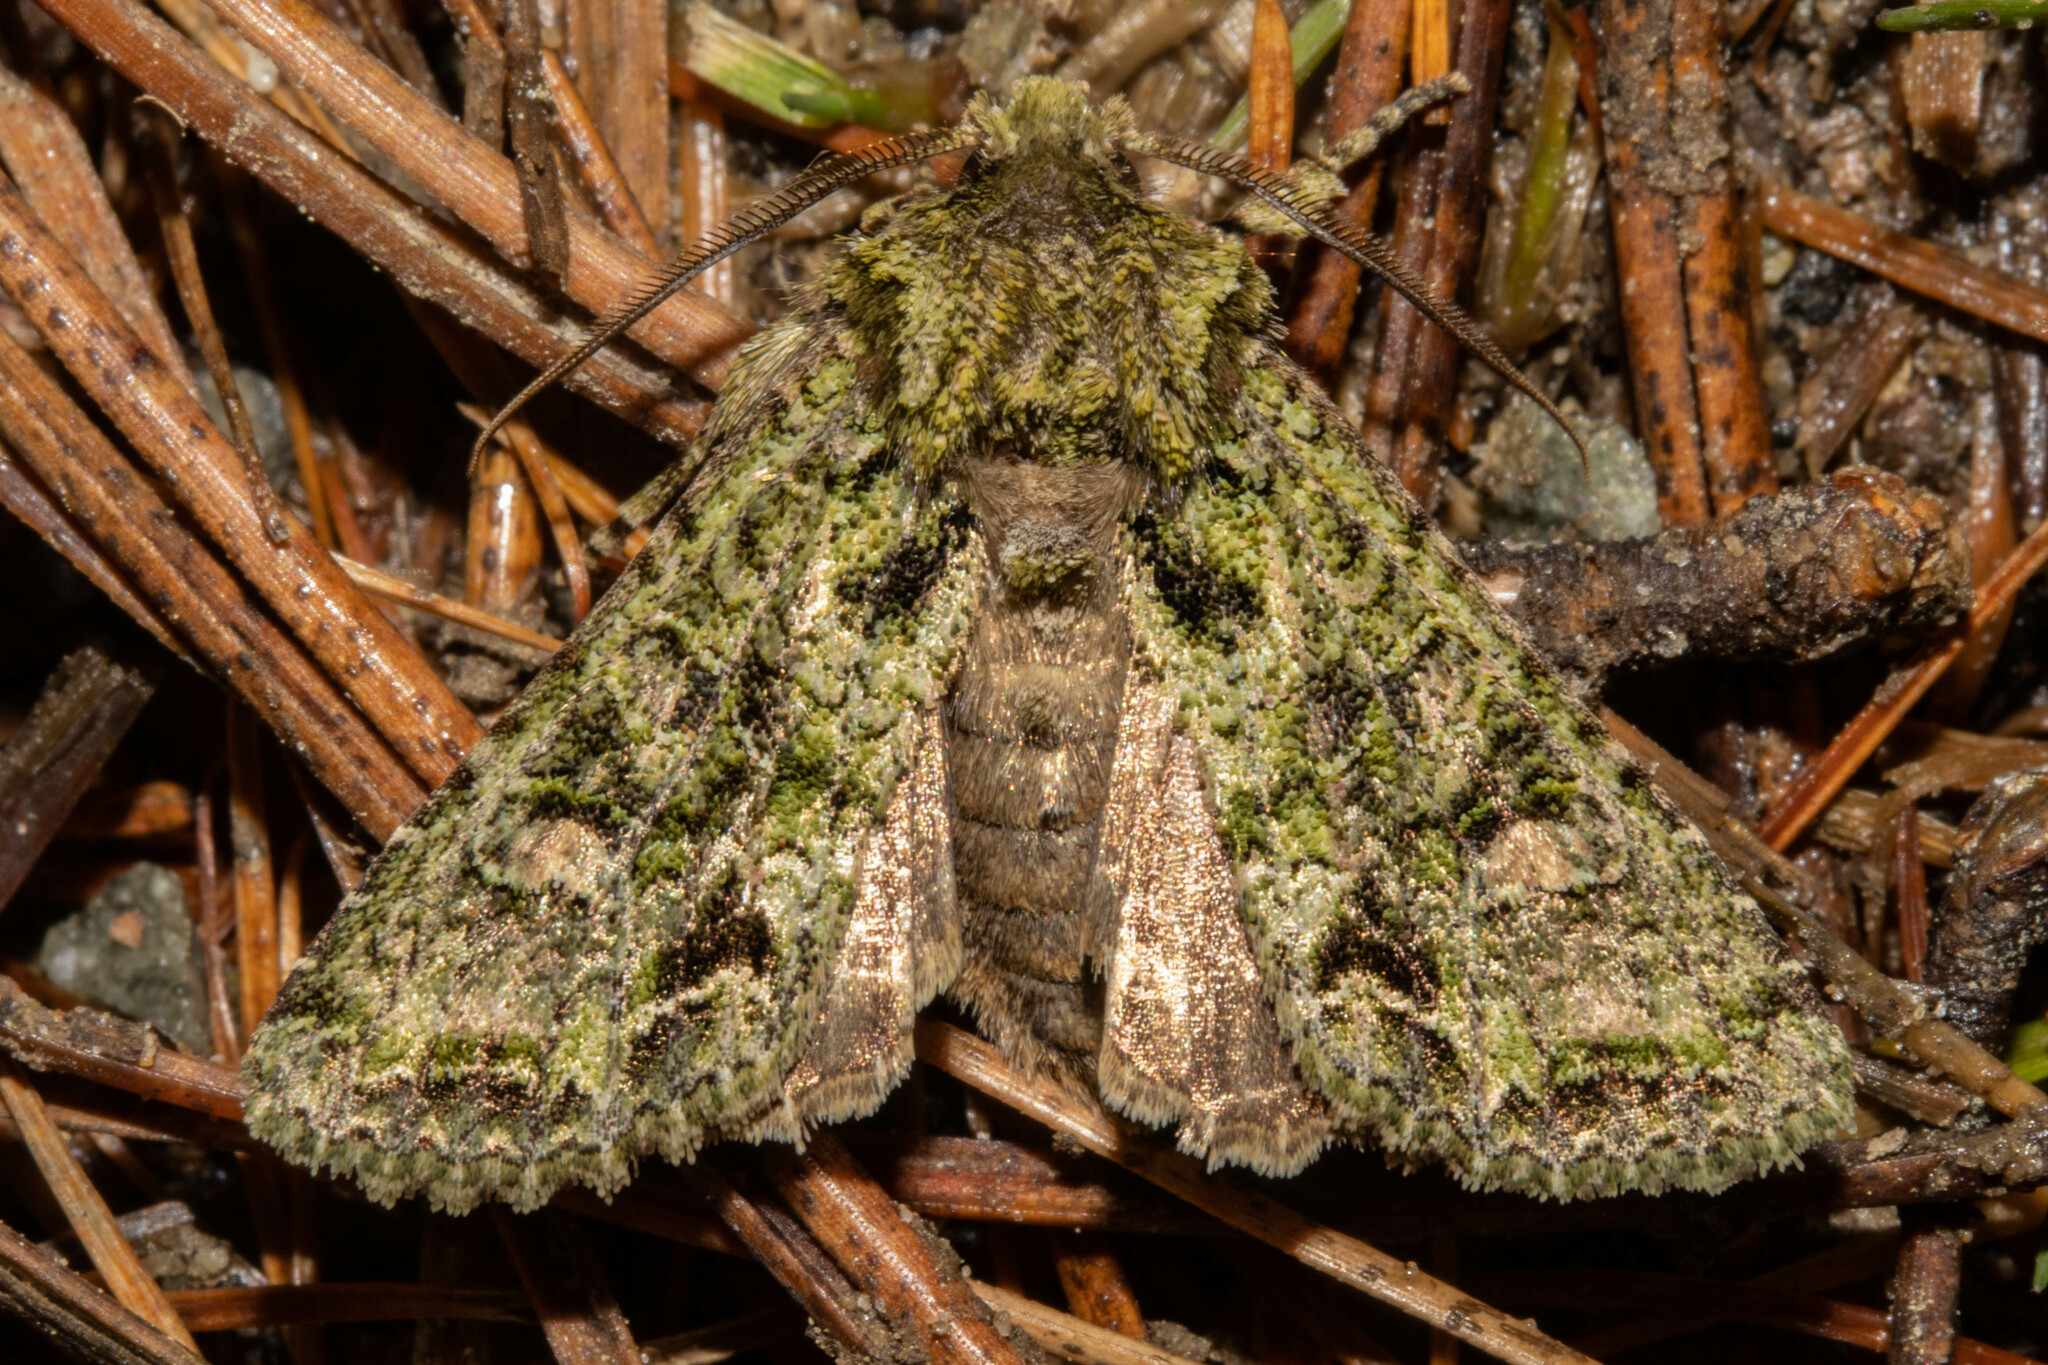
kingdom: Animalia
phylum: Arthropoda
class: Insecta
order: Lepidoptera
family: Noctuidae
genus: Ichneutica
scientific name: Ichneutica
